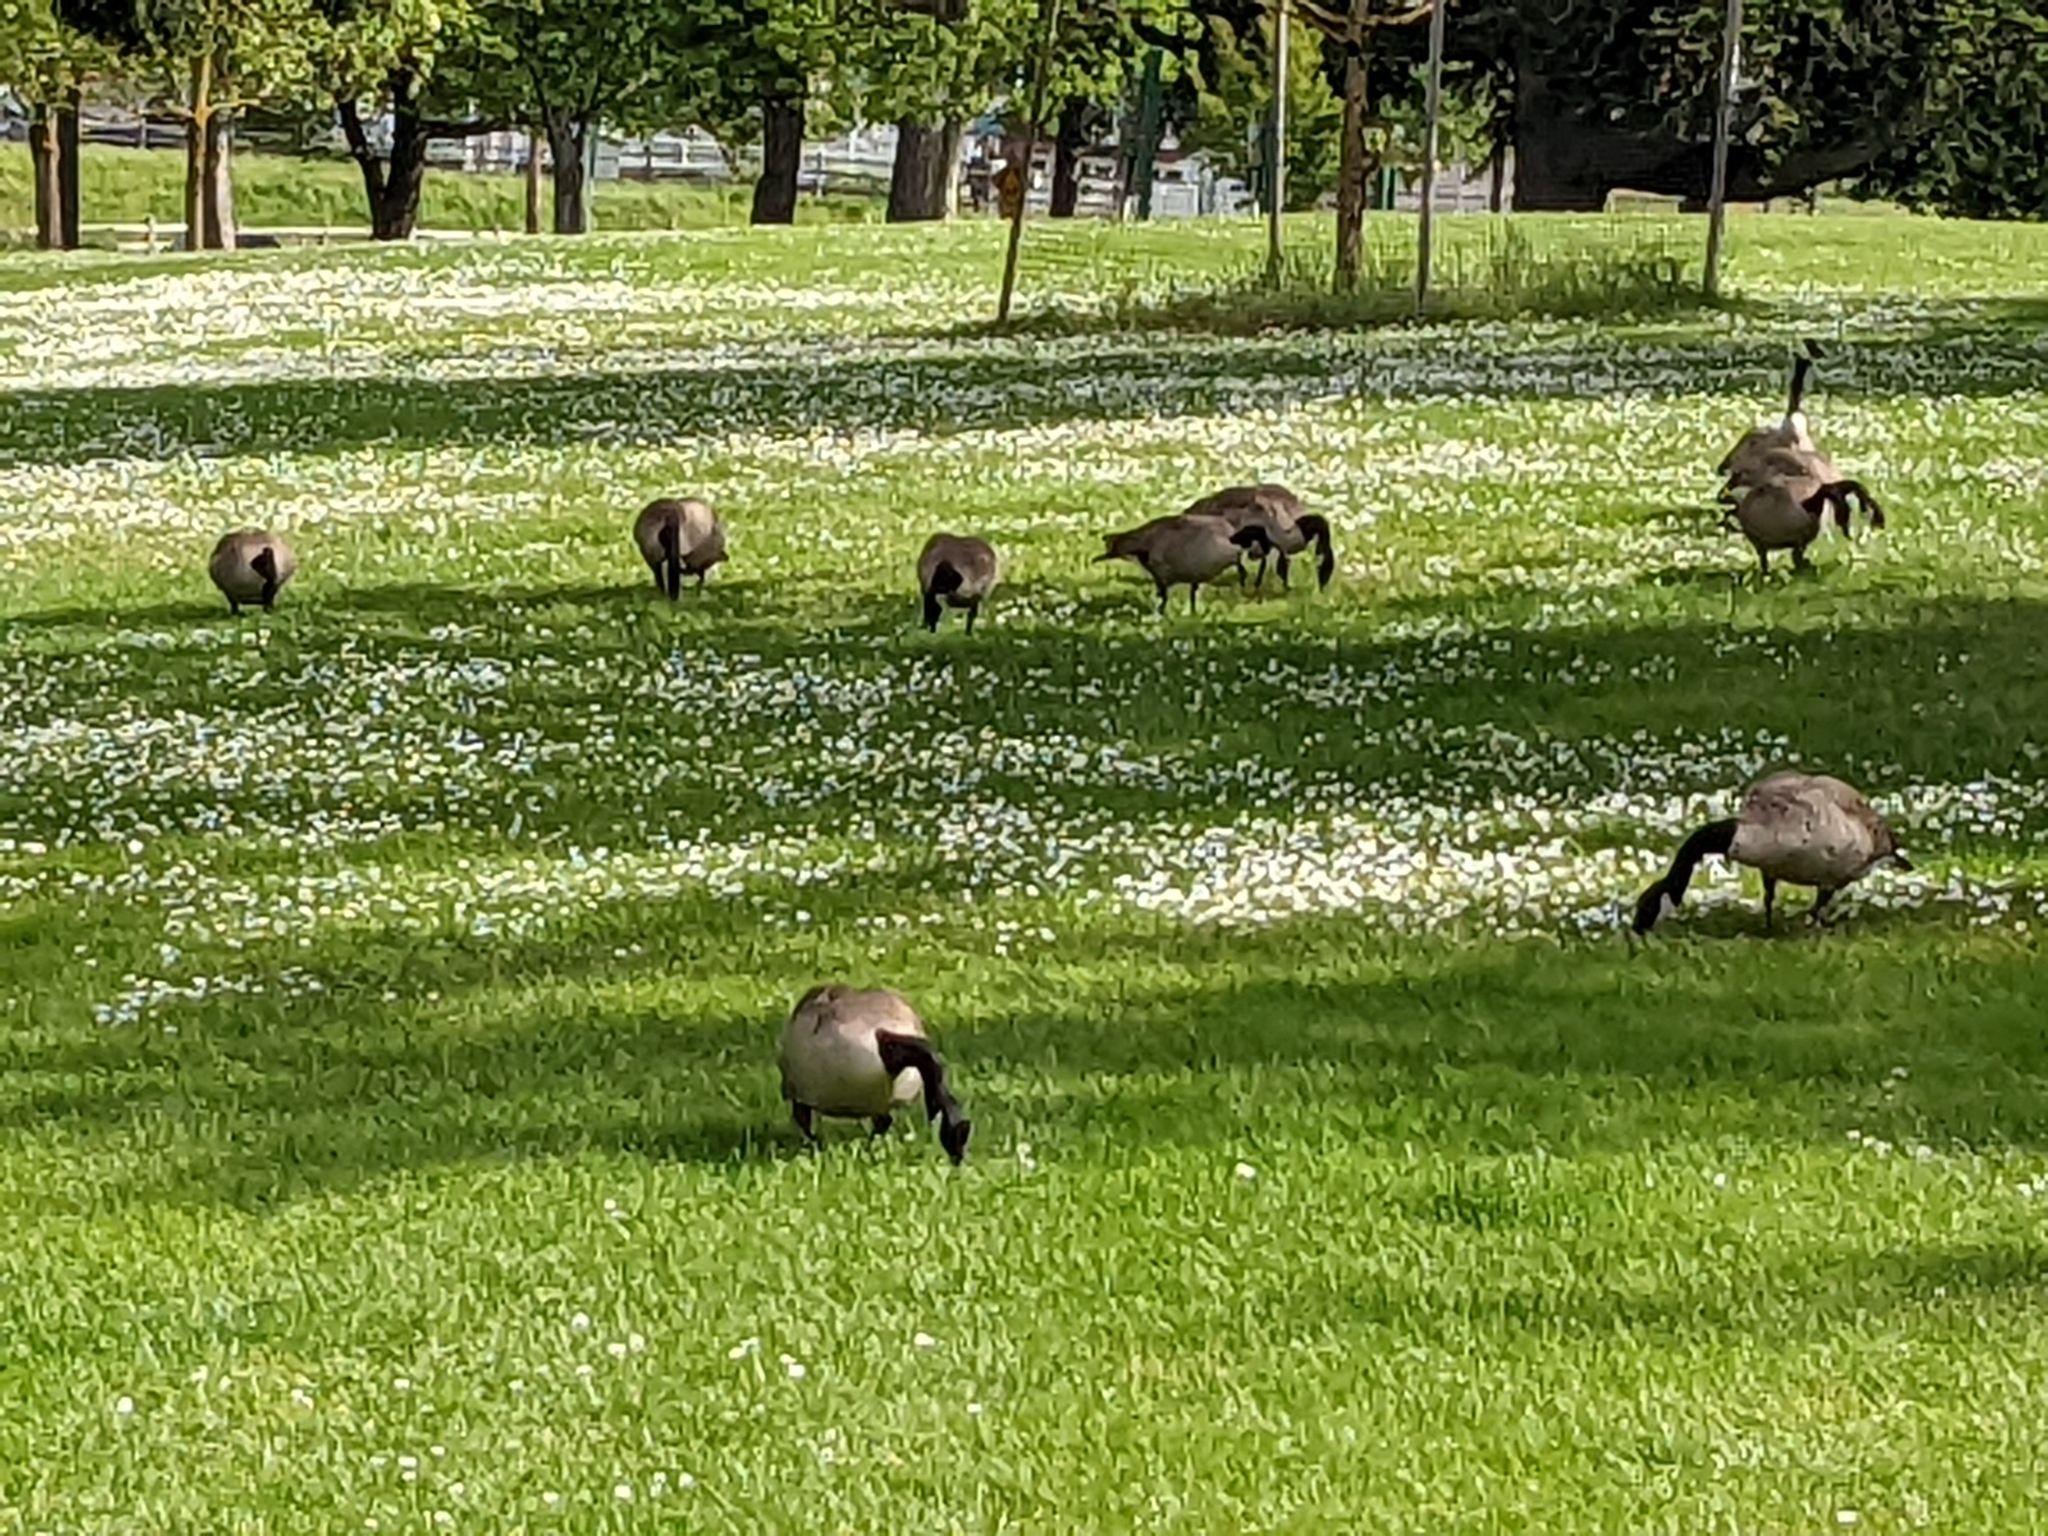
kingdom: Animalia
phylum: Chordata
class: Aves
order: Anseriformes
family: Anatidae
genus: Branta
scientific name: Branta canadensis
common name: Canada goose
